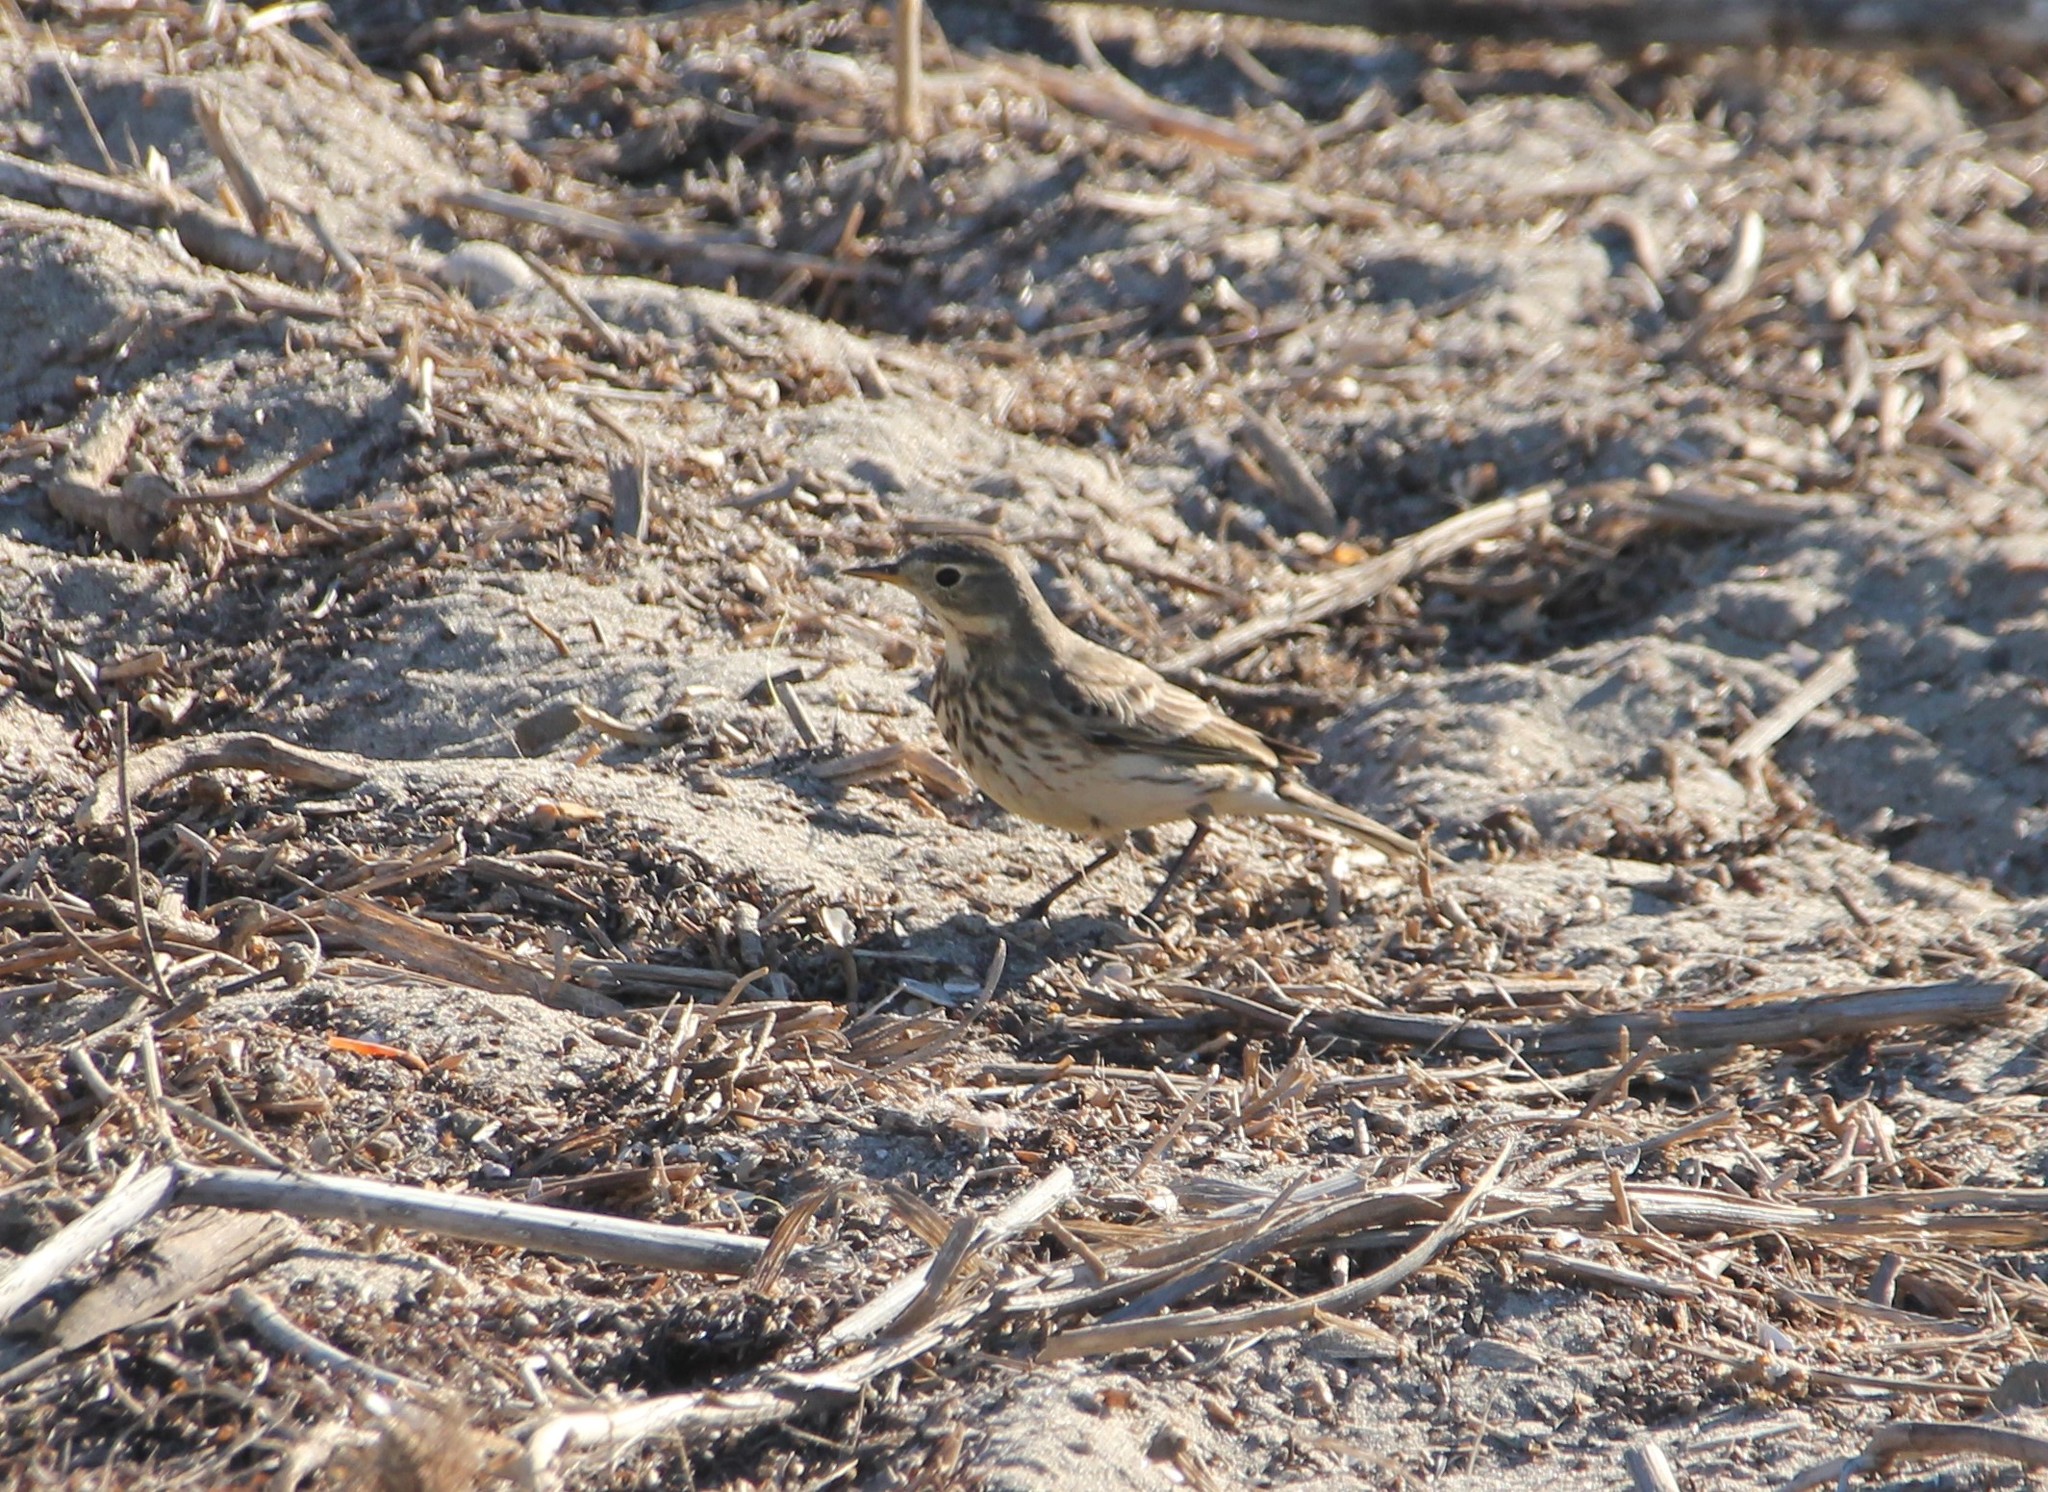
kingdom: Animalia
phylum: Chordata
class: Aves
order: Passeriformes
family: Motacillidae
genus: Anthus
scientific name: Anthus rubescens
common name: Buff-bellied pipit
